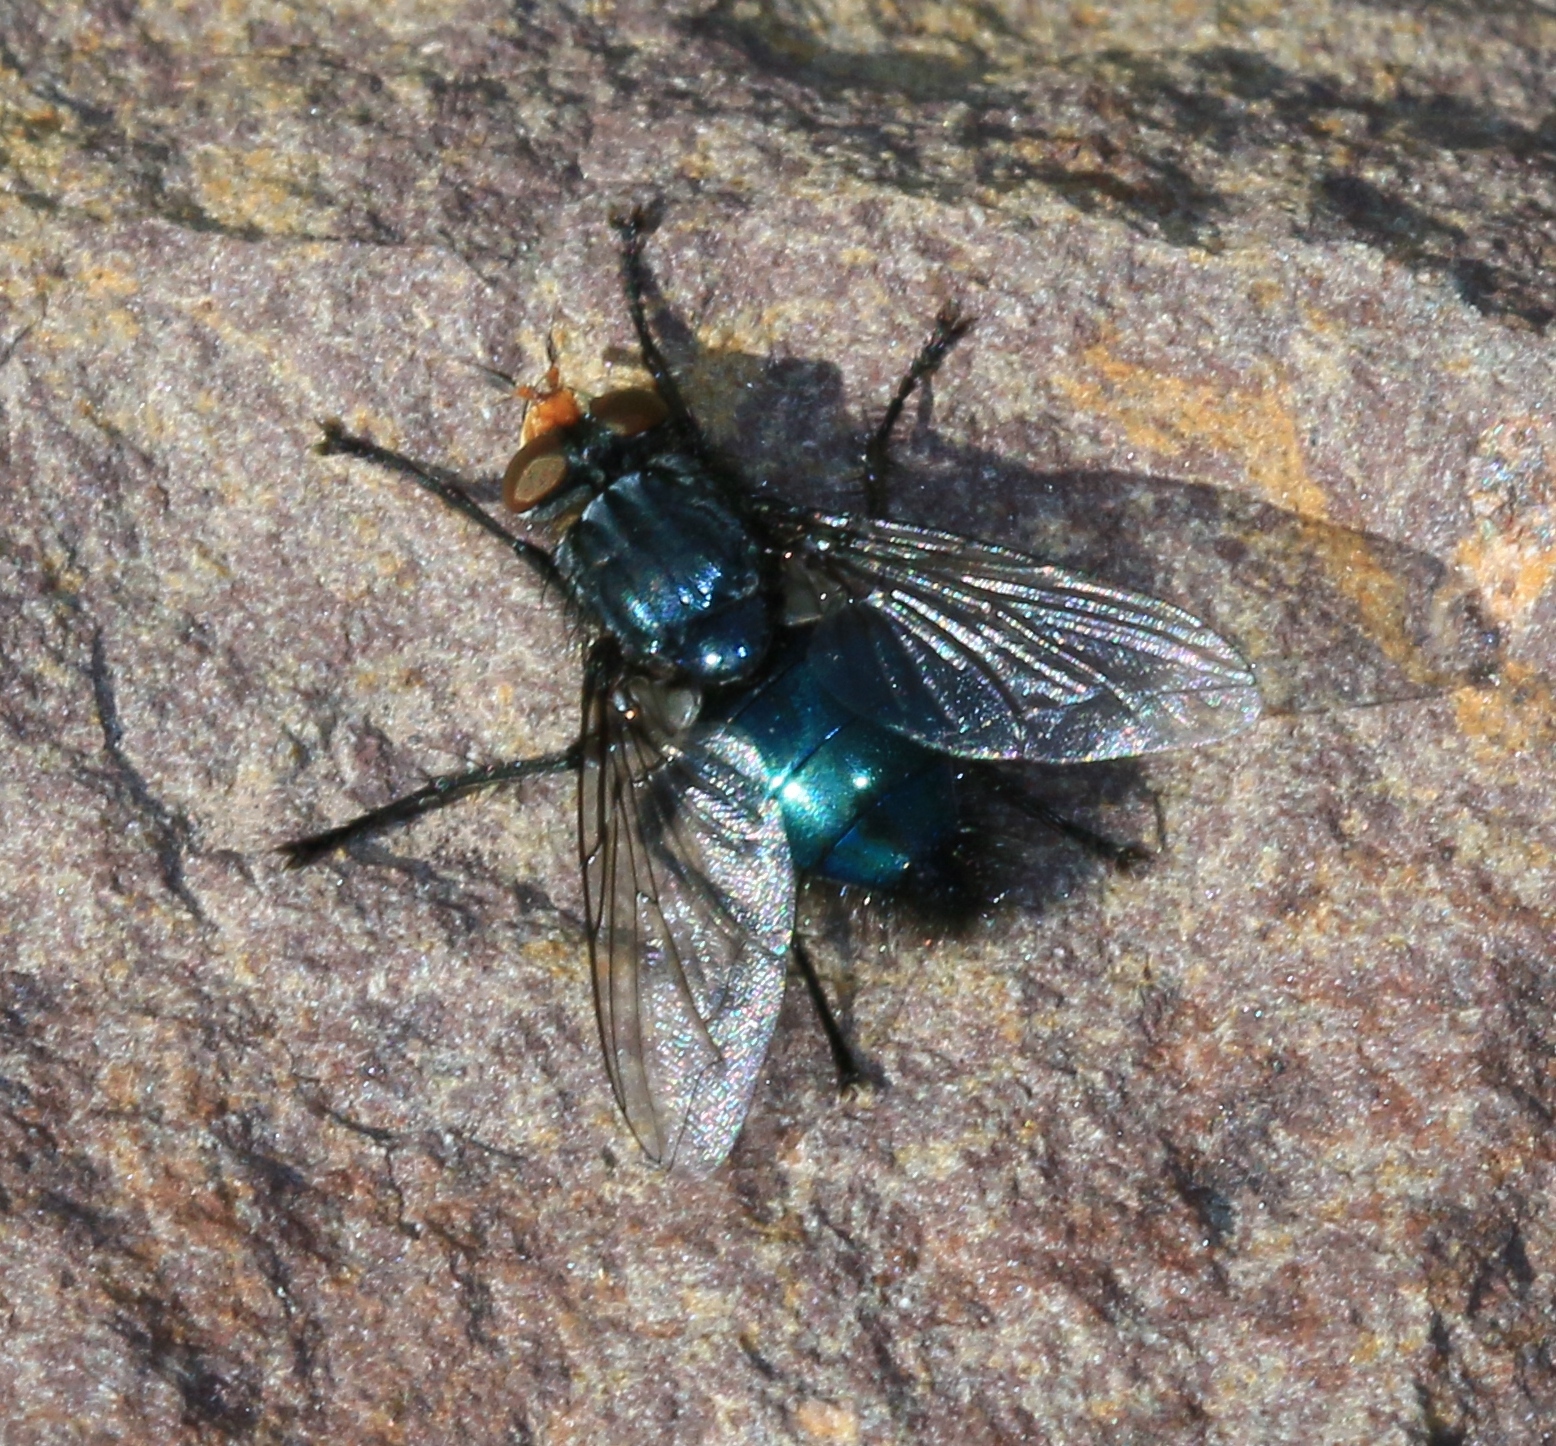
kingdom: Animalia
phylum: Arthropoda
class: Insecta
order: Diptera
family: Calliphoridae
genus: Cynomya
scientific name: Cynomya mortuorum
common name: Bluebottle blow fly
